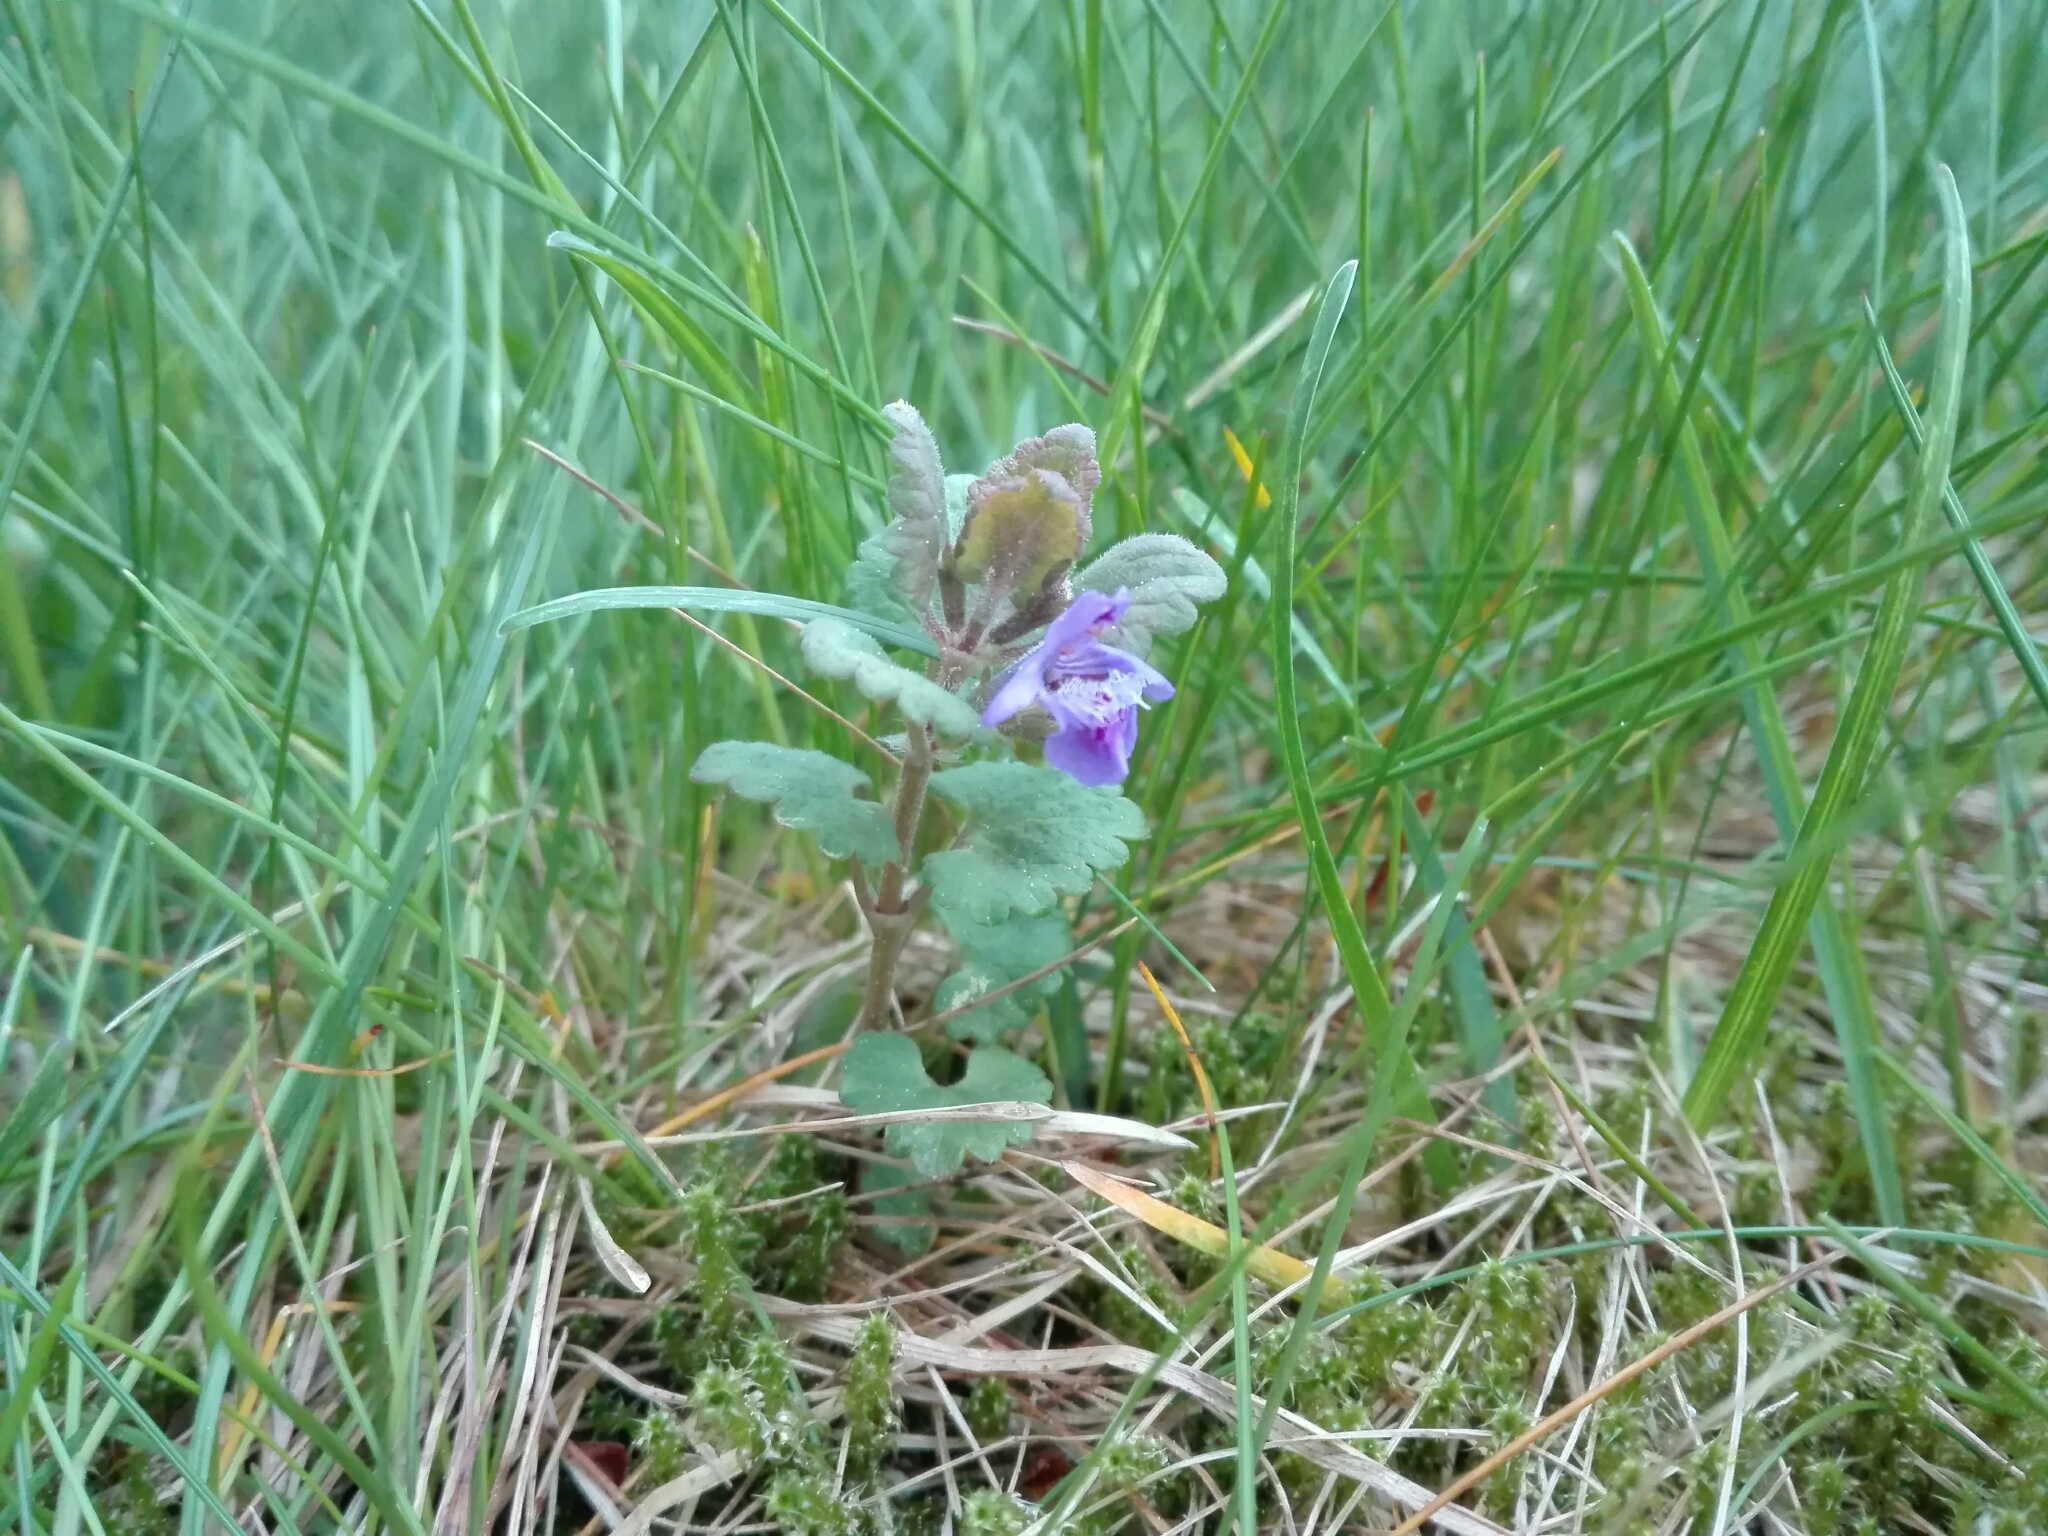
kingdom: Plantae
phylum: Tracheophyta
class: Magnoliopsida
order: Lamiales
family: Lamiaceae
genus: Glechoma
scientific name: Glechoma hederacea
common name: Ground ivy
